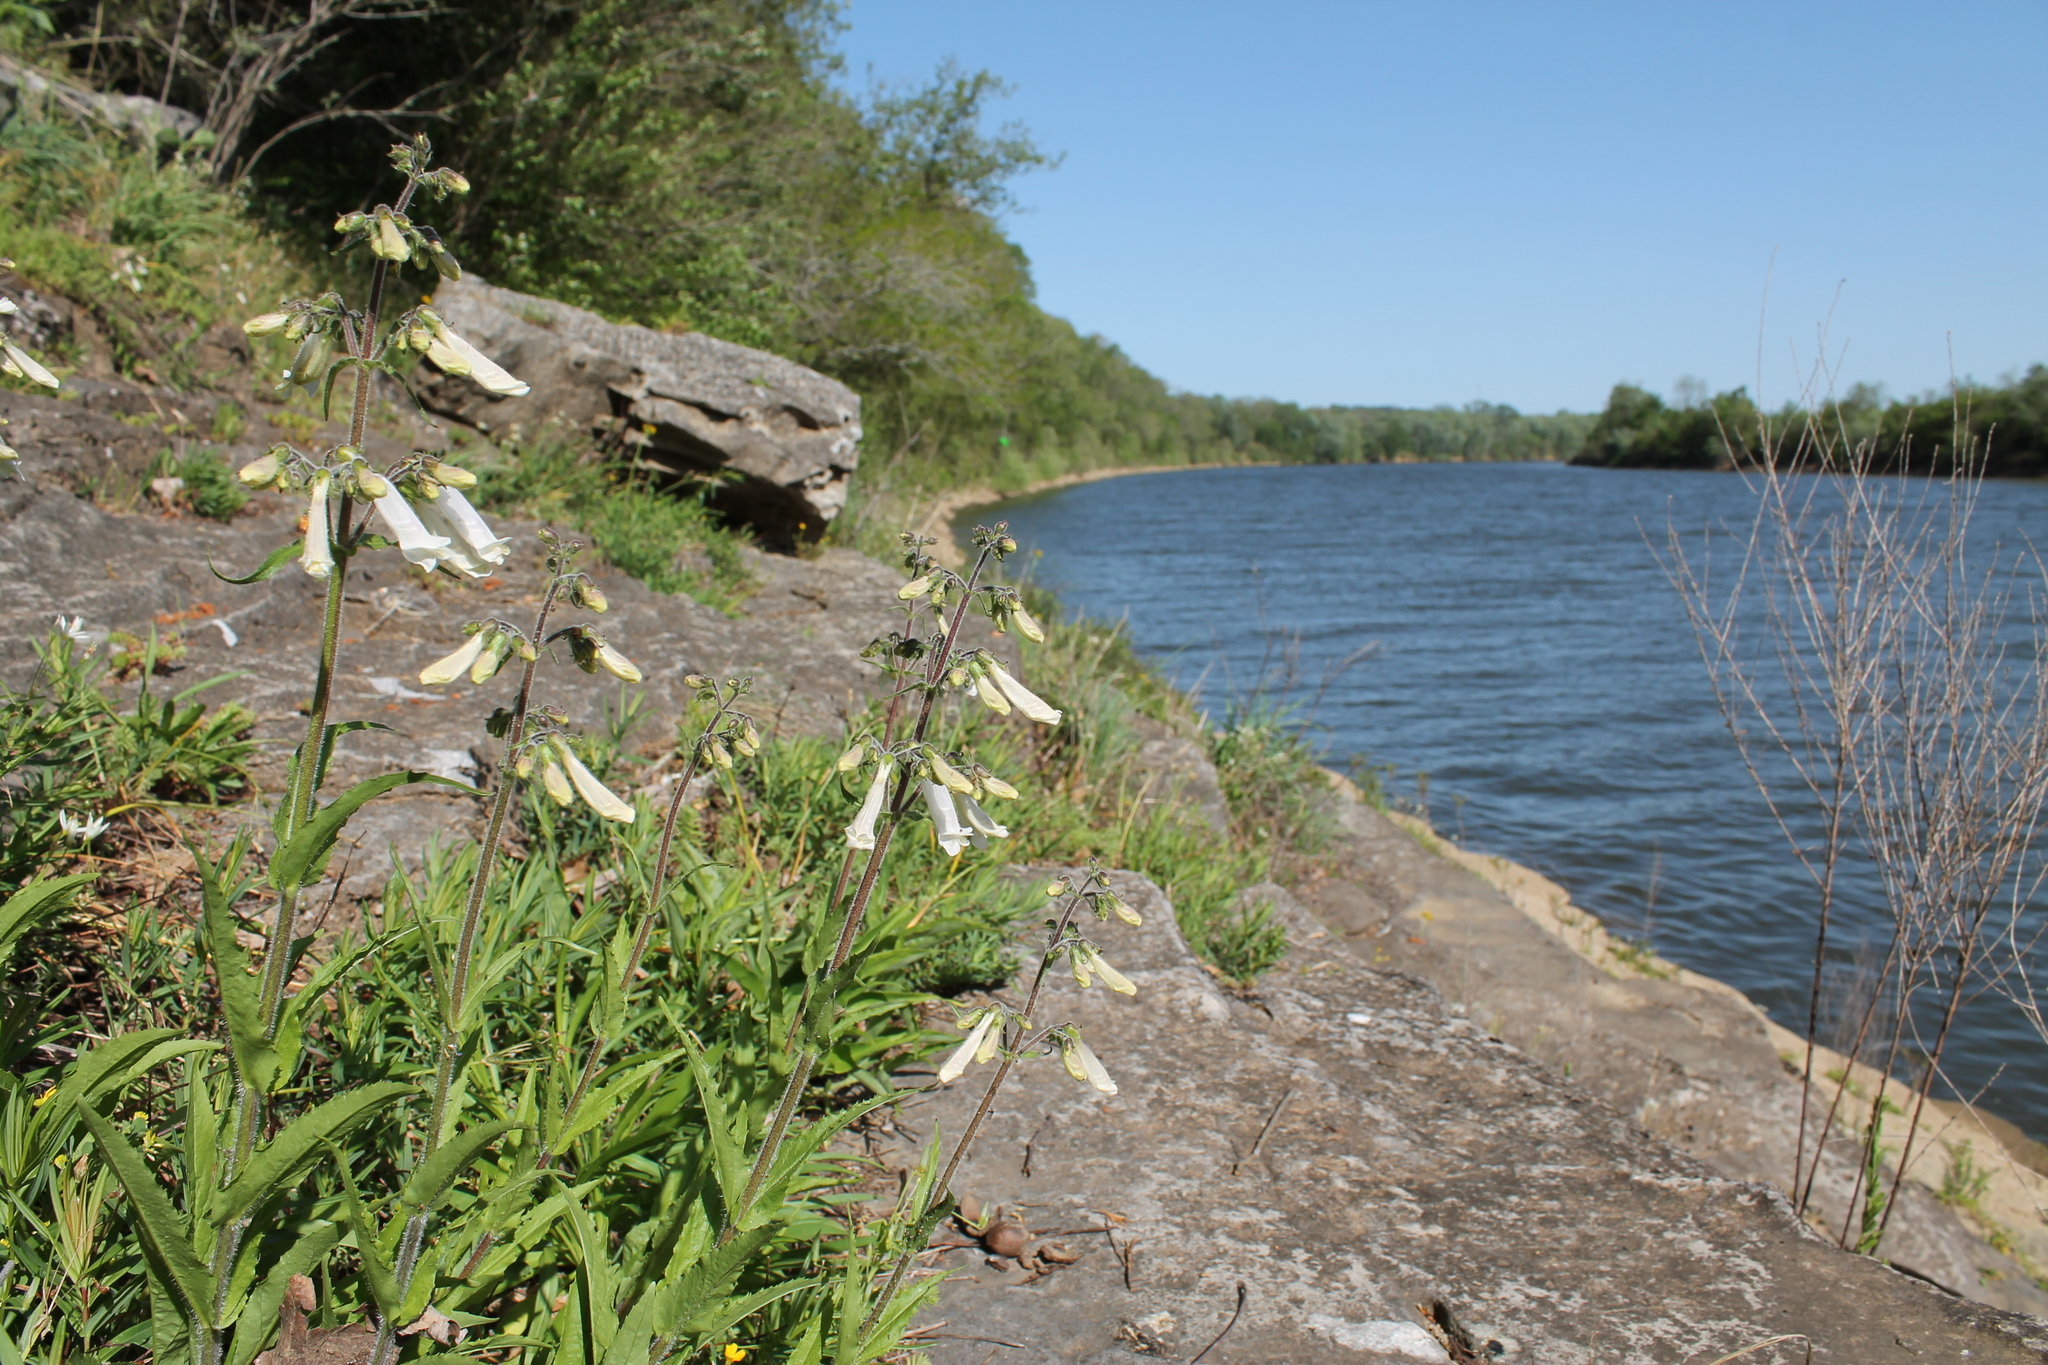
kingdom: Plantae
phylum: Tracheophyta
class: Magnoliopsida
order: Lamiales
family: Plantaginaceae
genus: Penstemon
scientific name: Penstemon tenuiflorus
